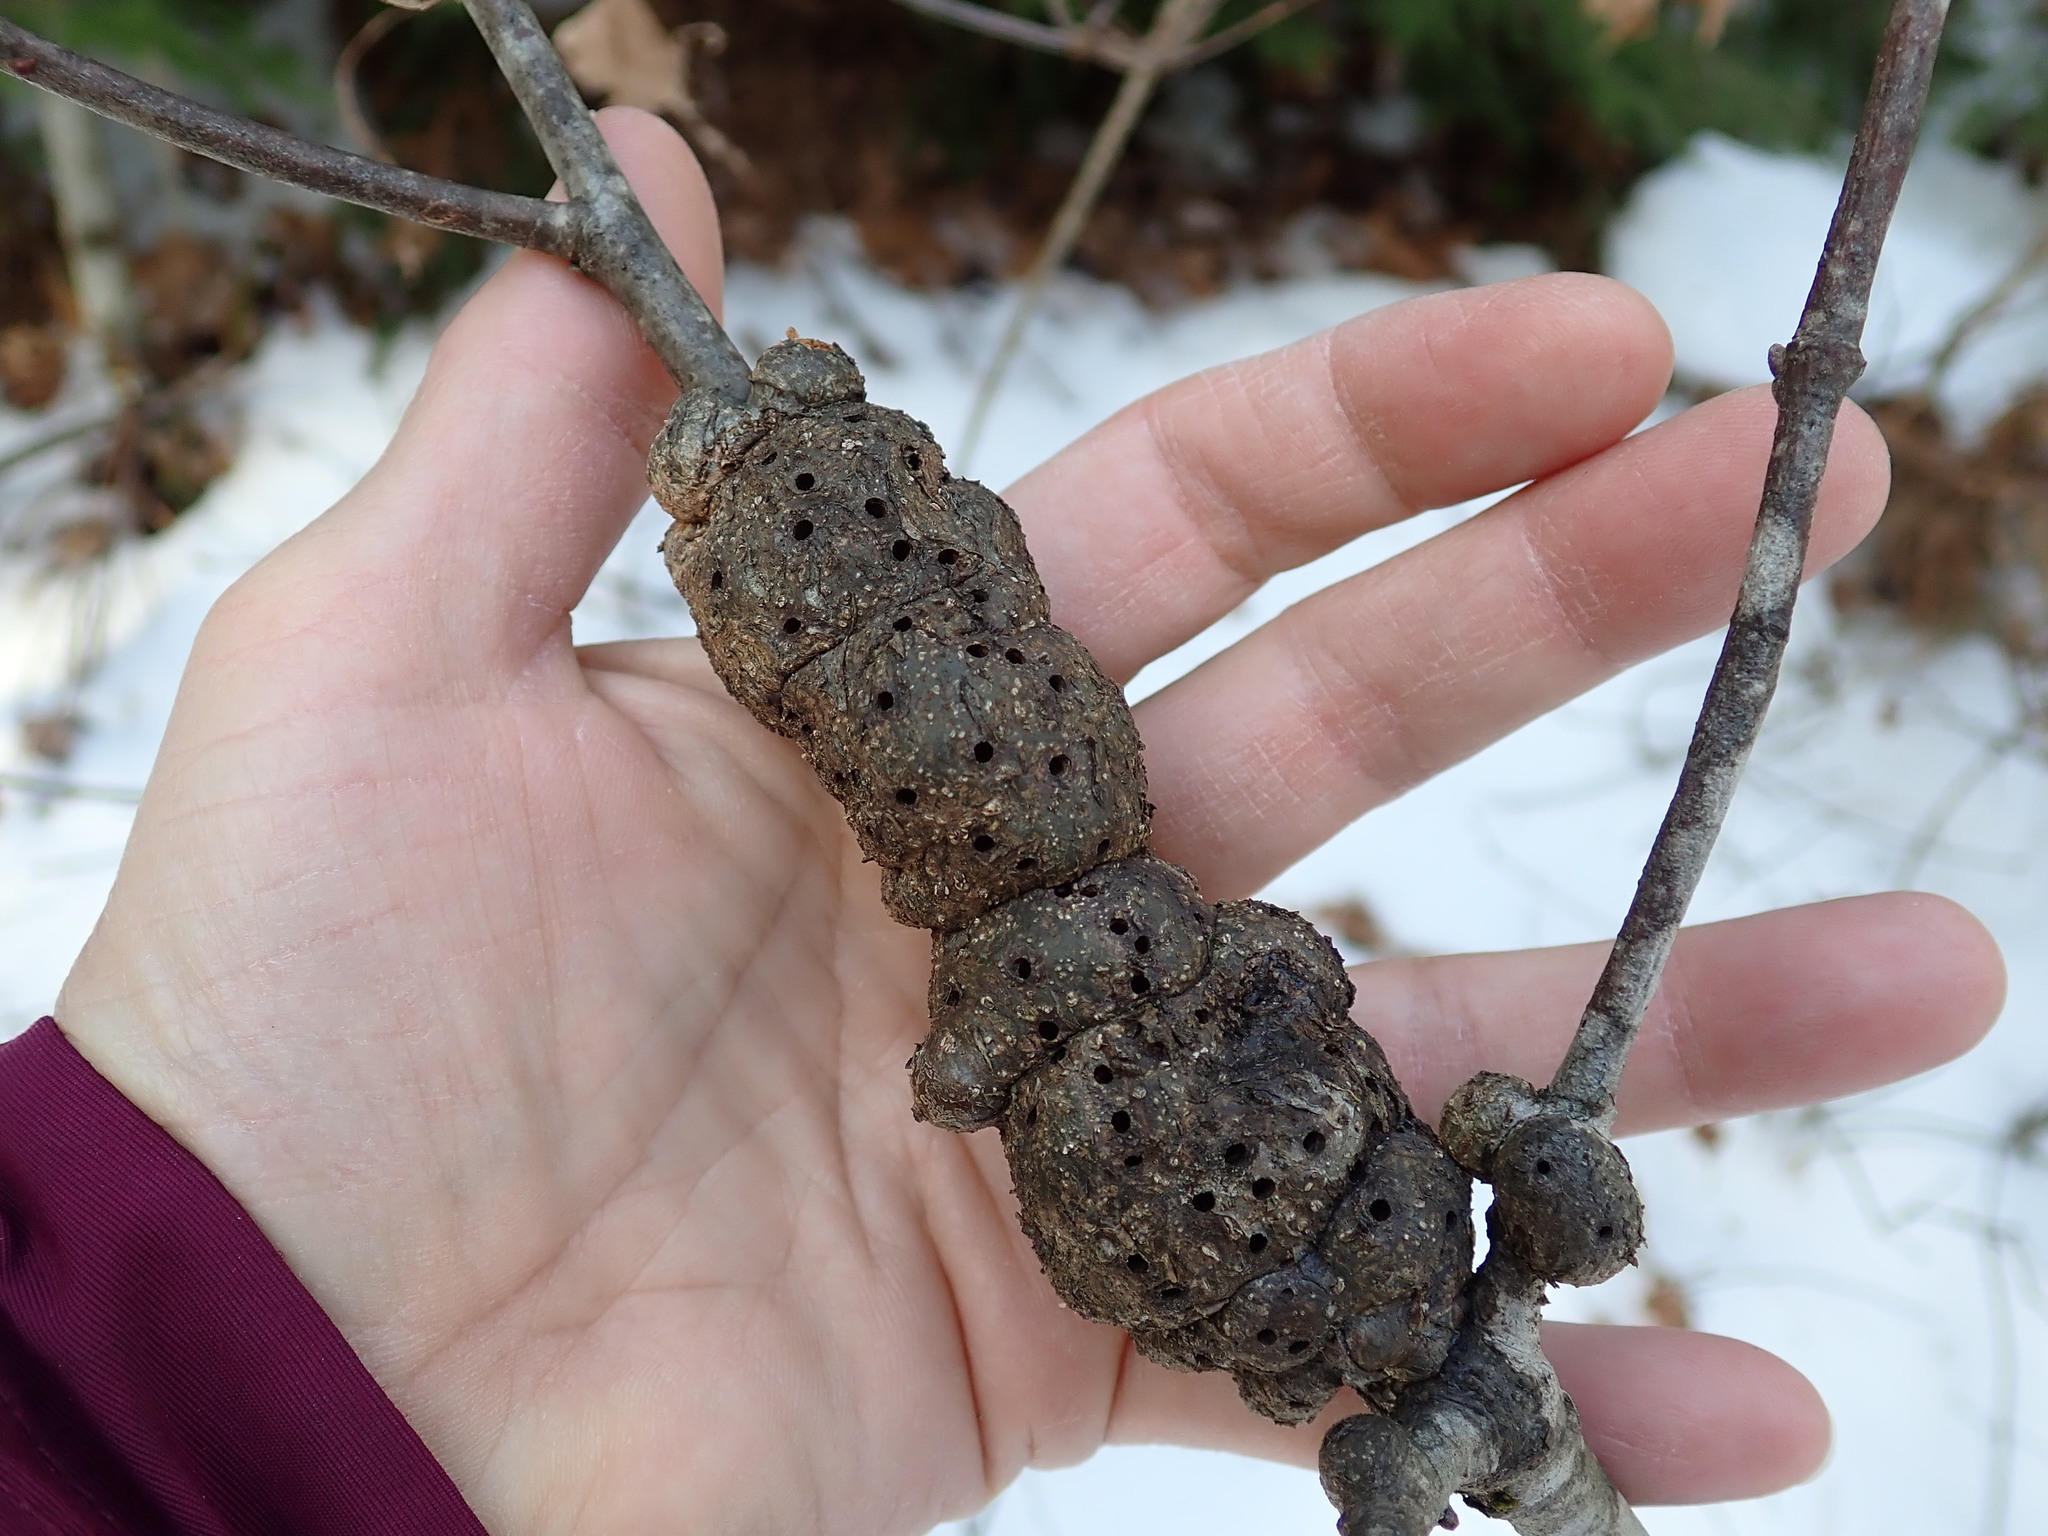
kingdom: Fungi
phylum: Ascomycota
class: Dothideomycetes
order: Venturiales
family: Venturiaceae
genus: Apiosporina
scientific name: Apiosporina morbosa
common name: Black knot
